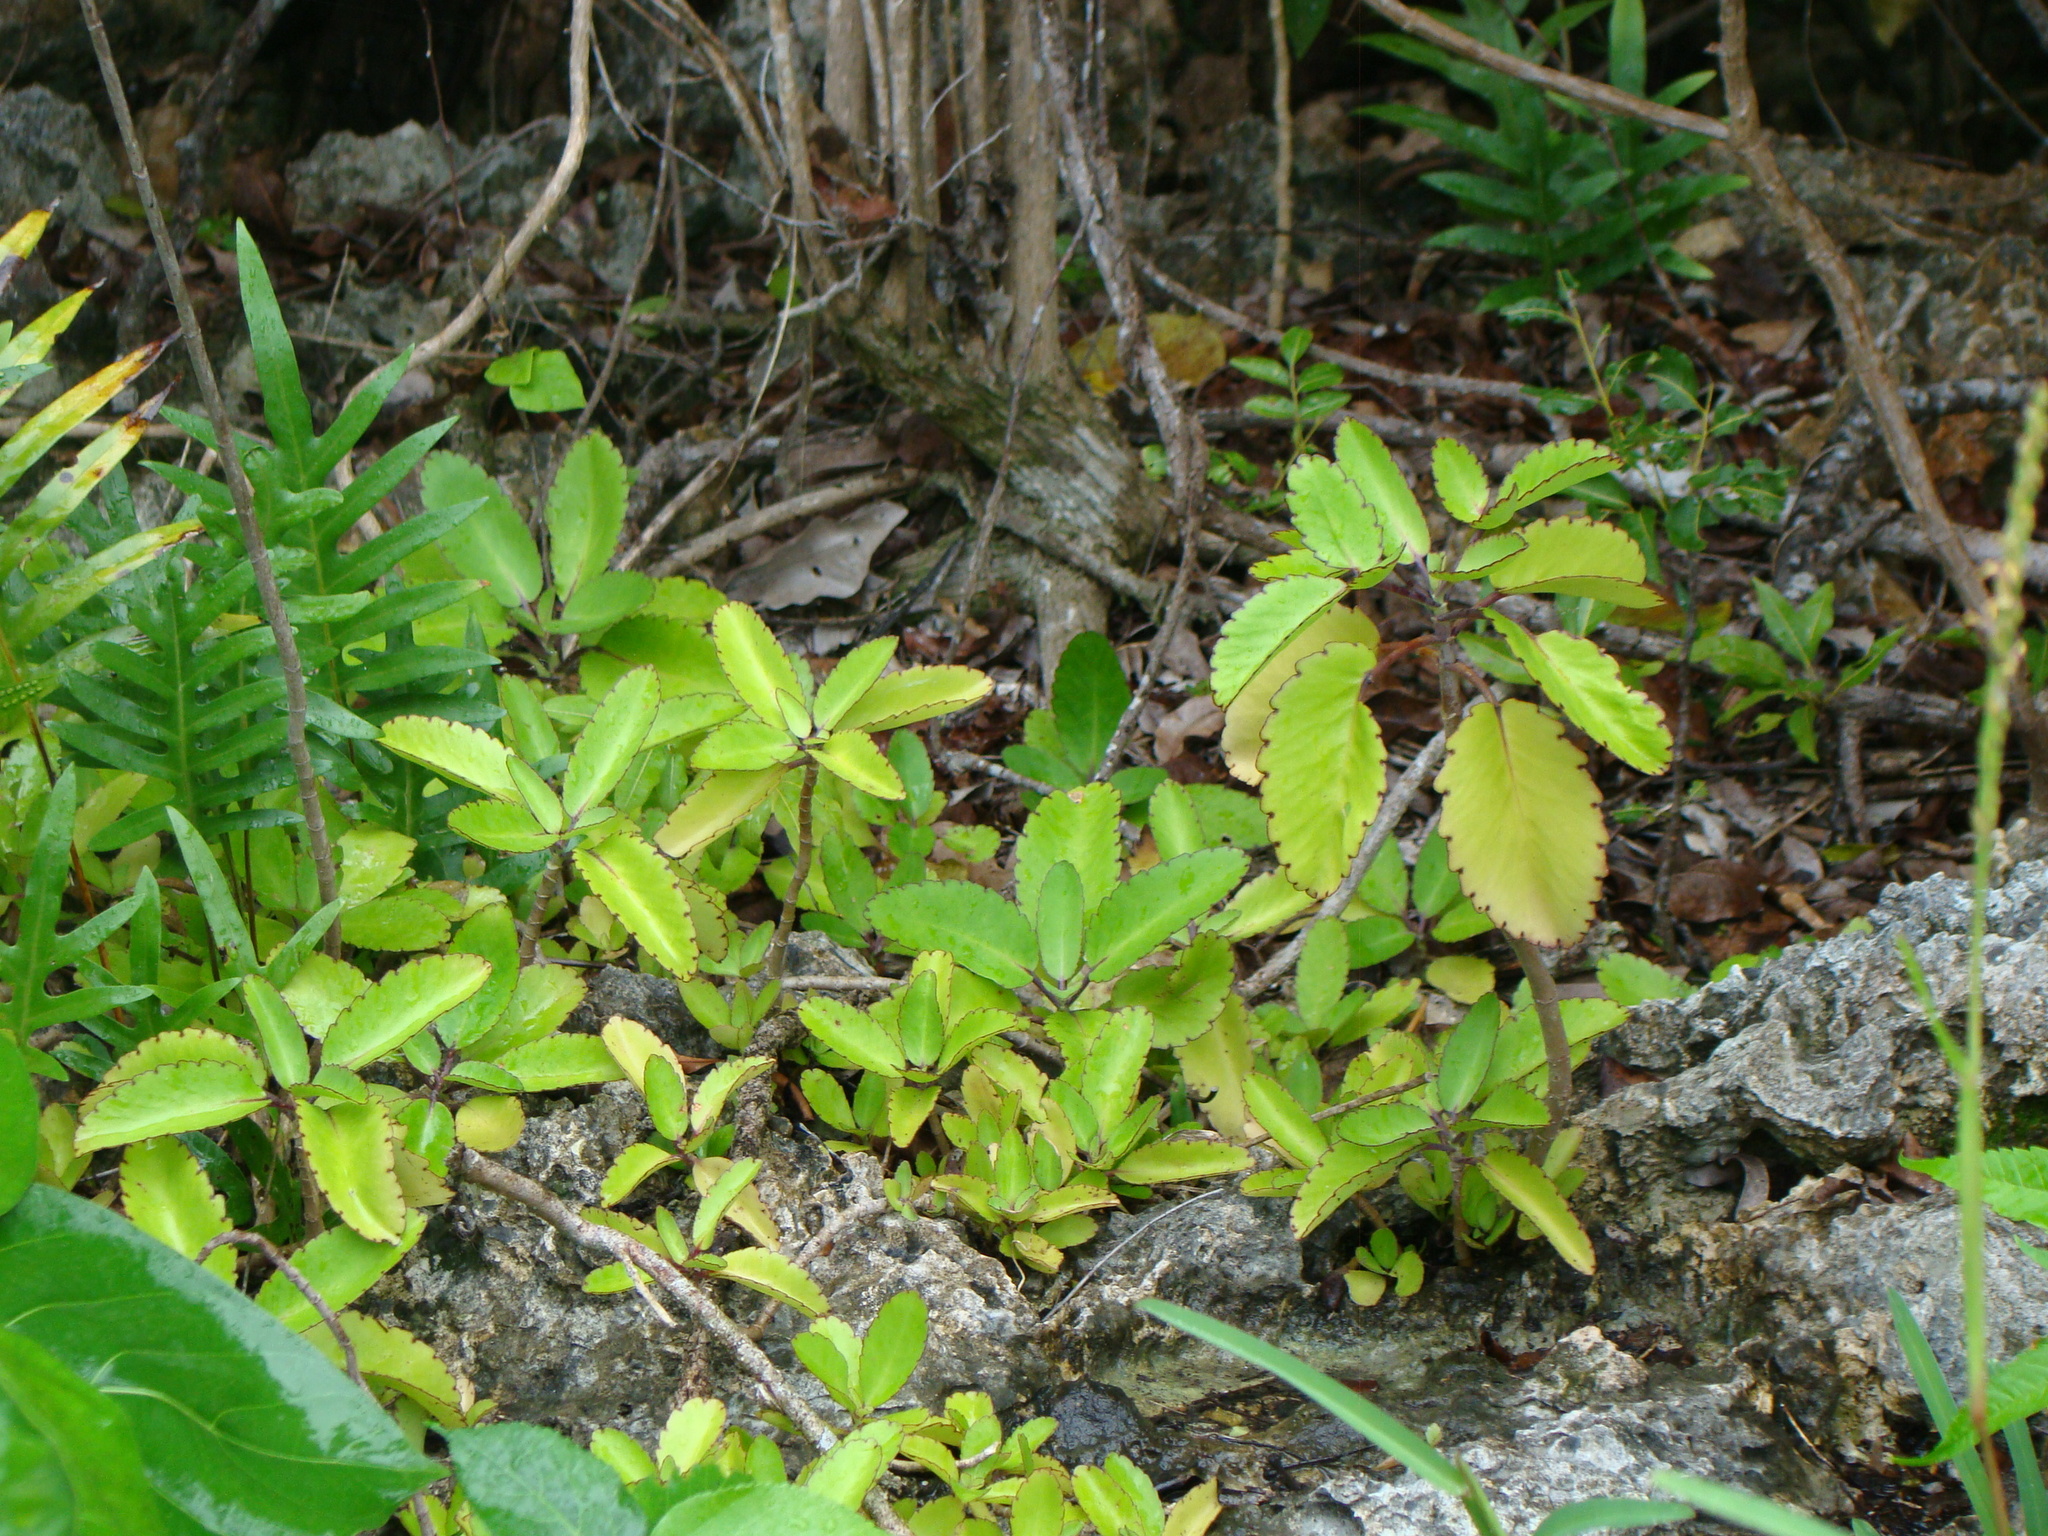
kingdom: Plantae
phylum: Tracheophyta
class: Magnoliopsida
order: Saxifragales
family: Crassulaceae
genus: Kalanchoe
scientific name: Kalanchoe pinnata
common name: Cathedral bells
